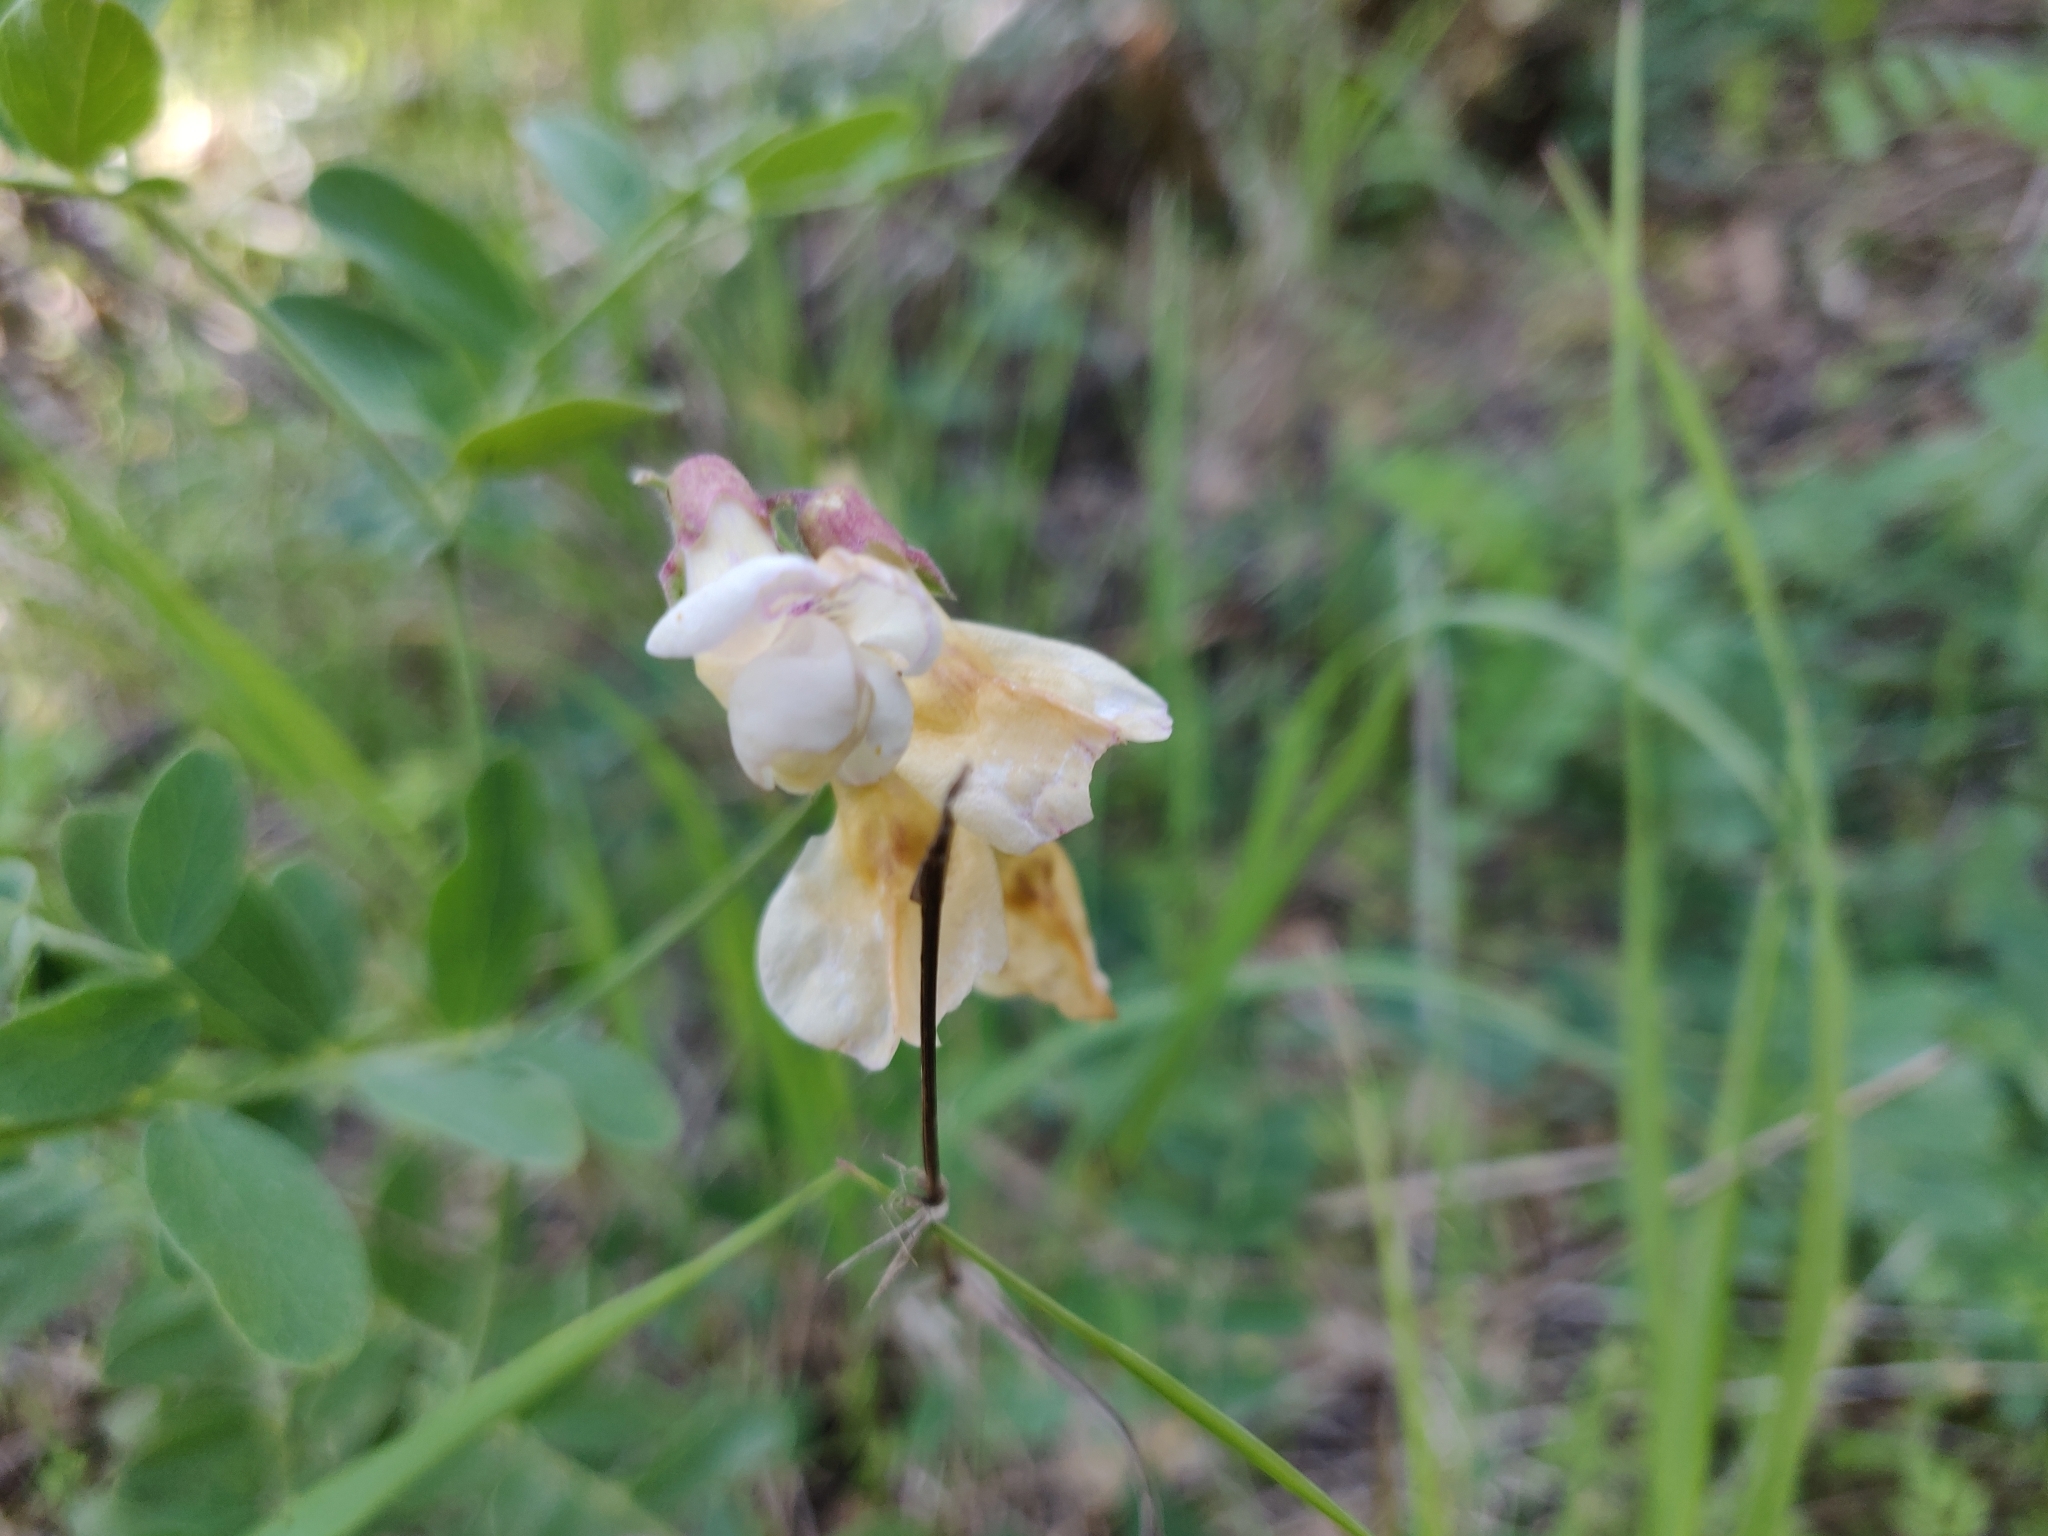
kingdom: Plantae
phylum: Tracheophyta
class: Magnoliopsida
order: Fabales
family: Fabaceae
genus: Lathyrus
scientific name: Lathyrus vestitus
